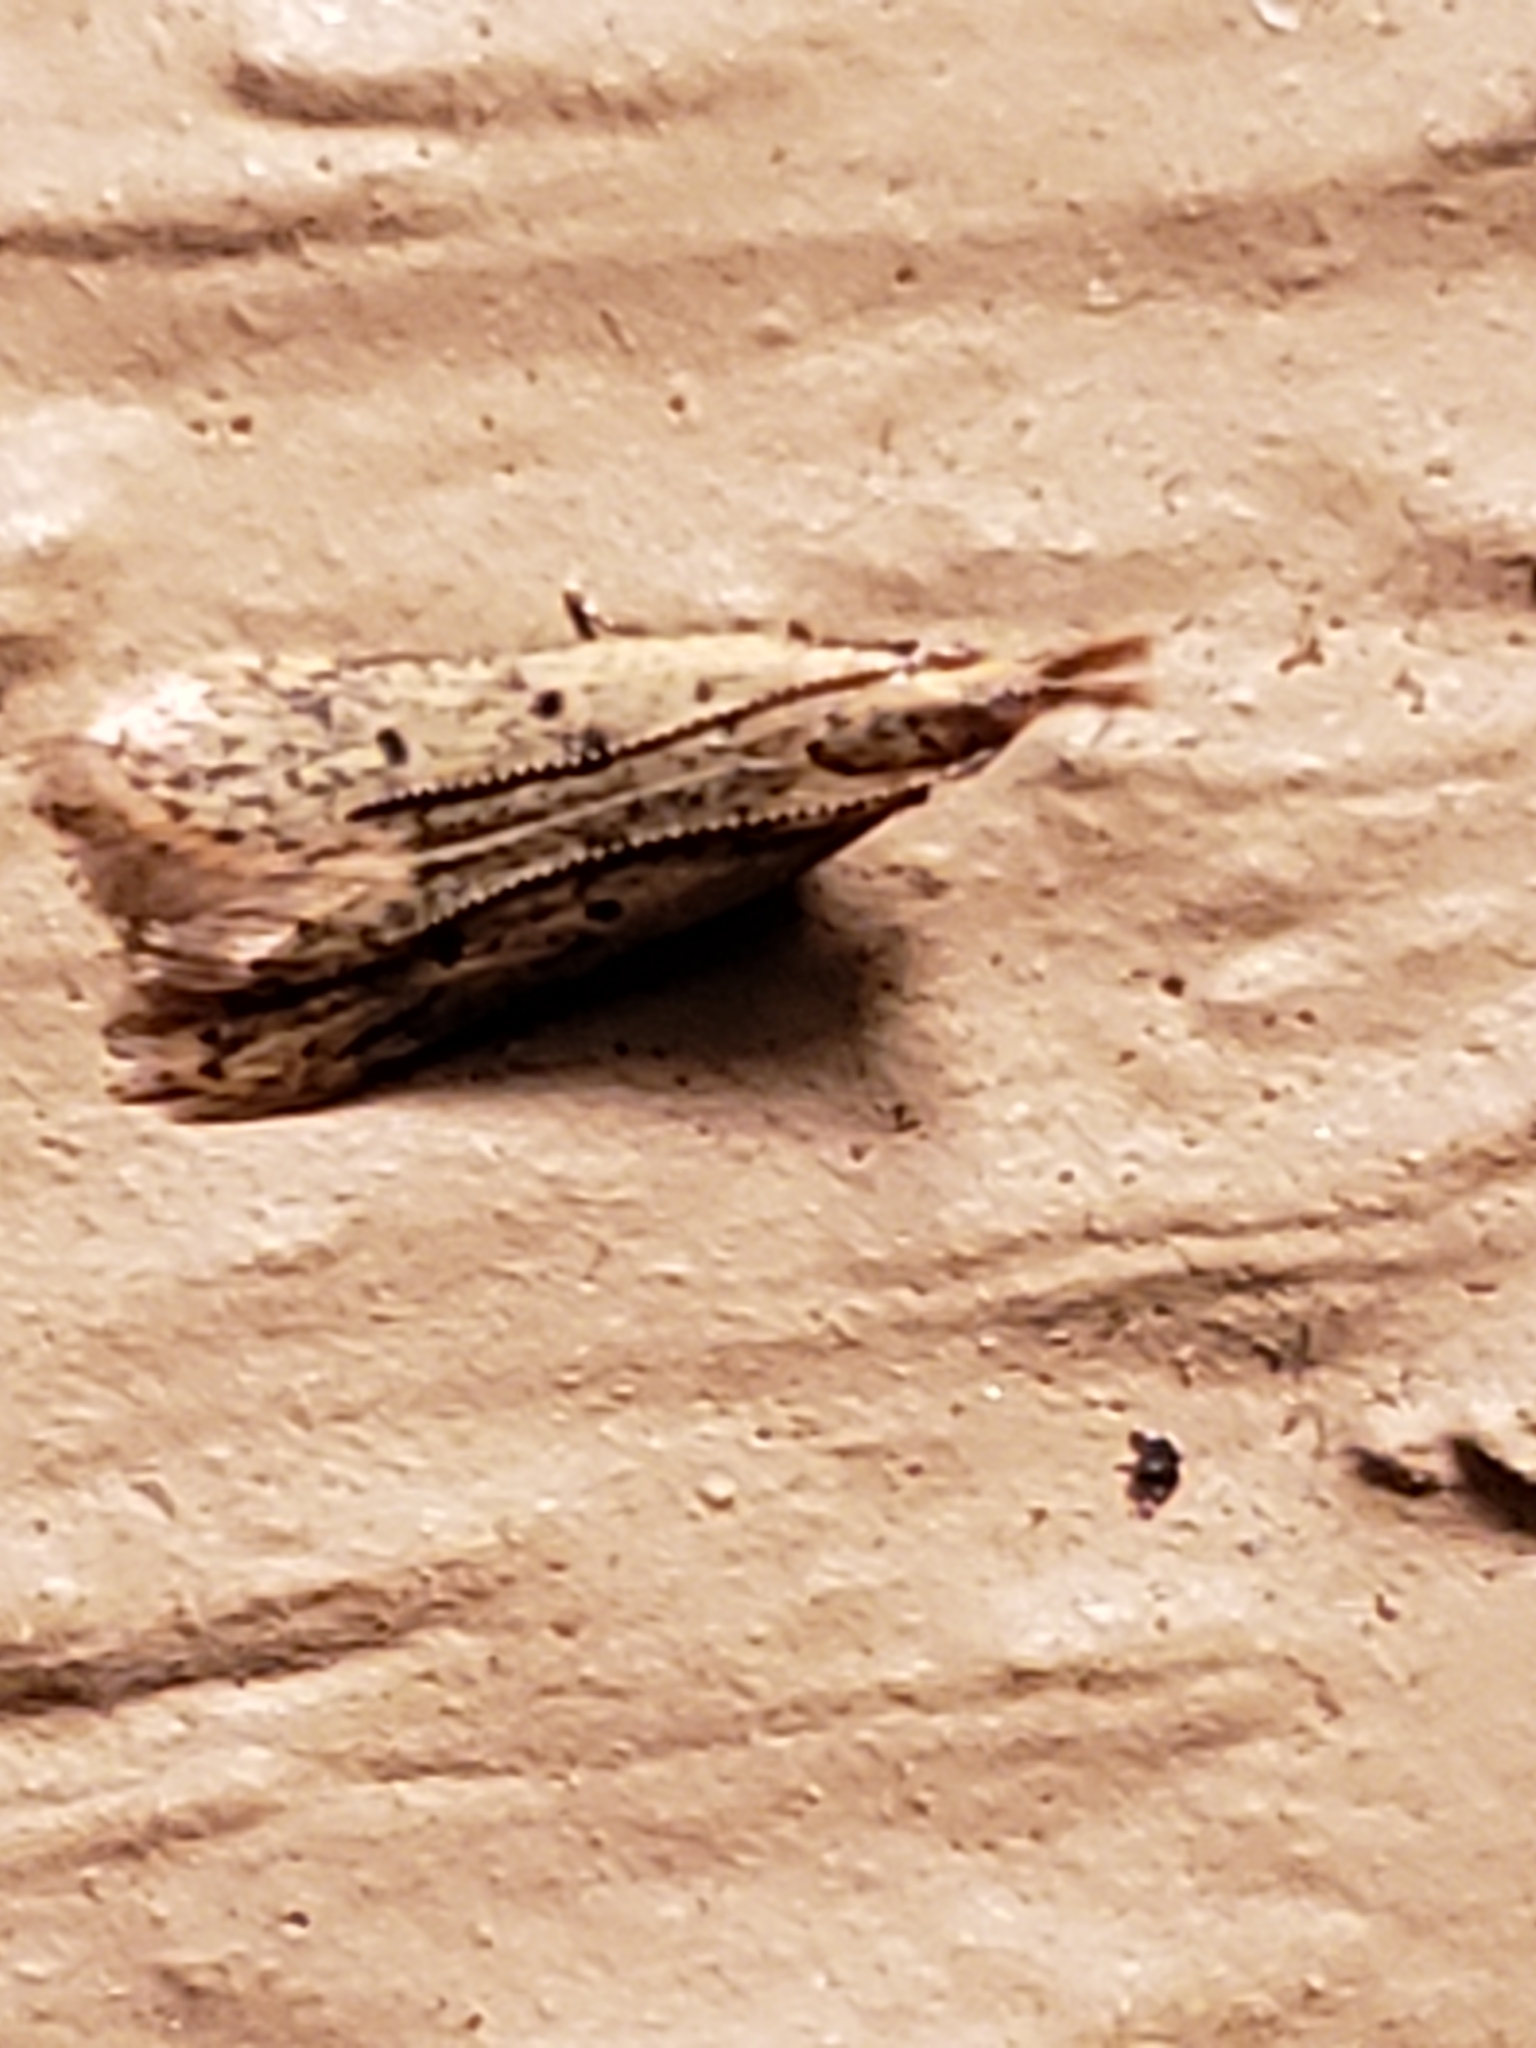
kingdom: Animalia
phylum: Arthropoda
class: Insecta
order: Lepidoptera
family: Gelechiidae
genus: Dichomeris
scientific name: Dichomeris punctipennella
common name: Many-spotted dichomeris moth
